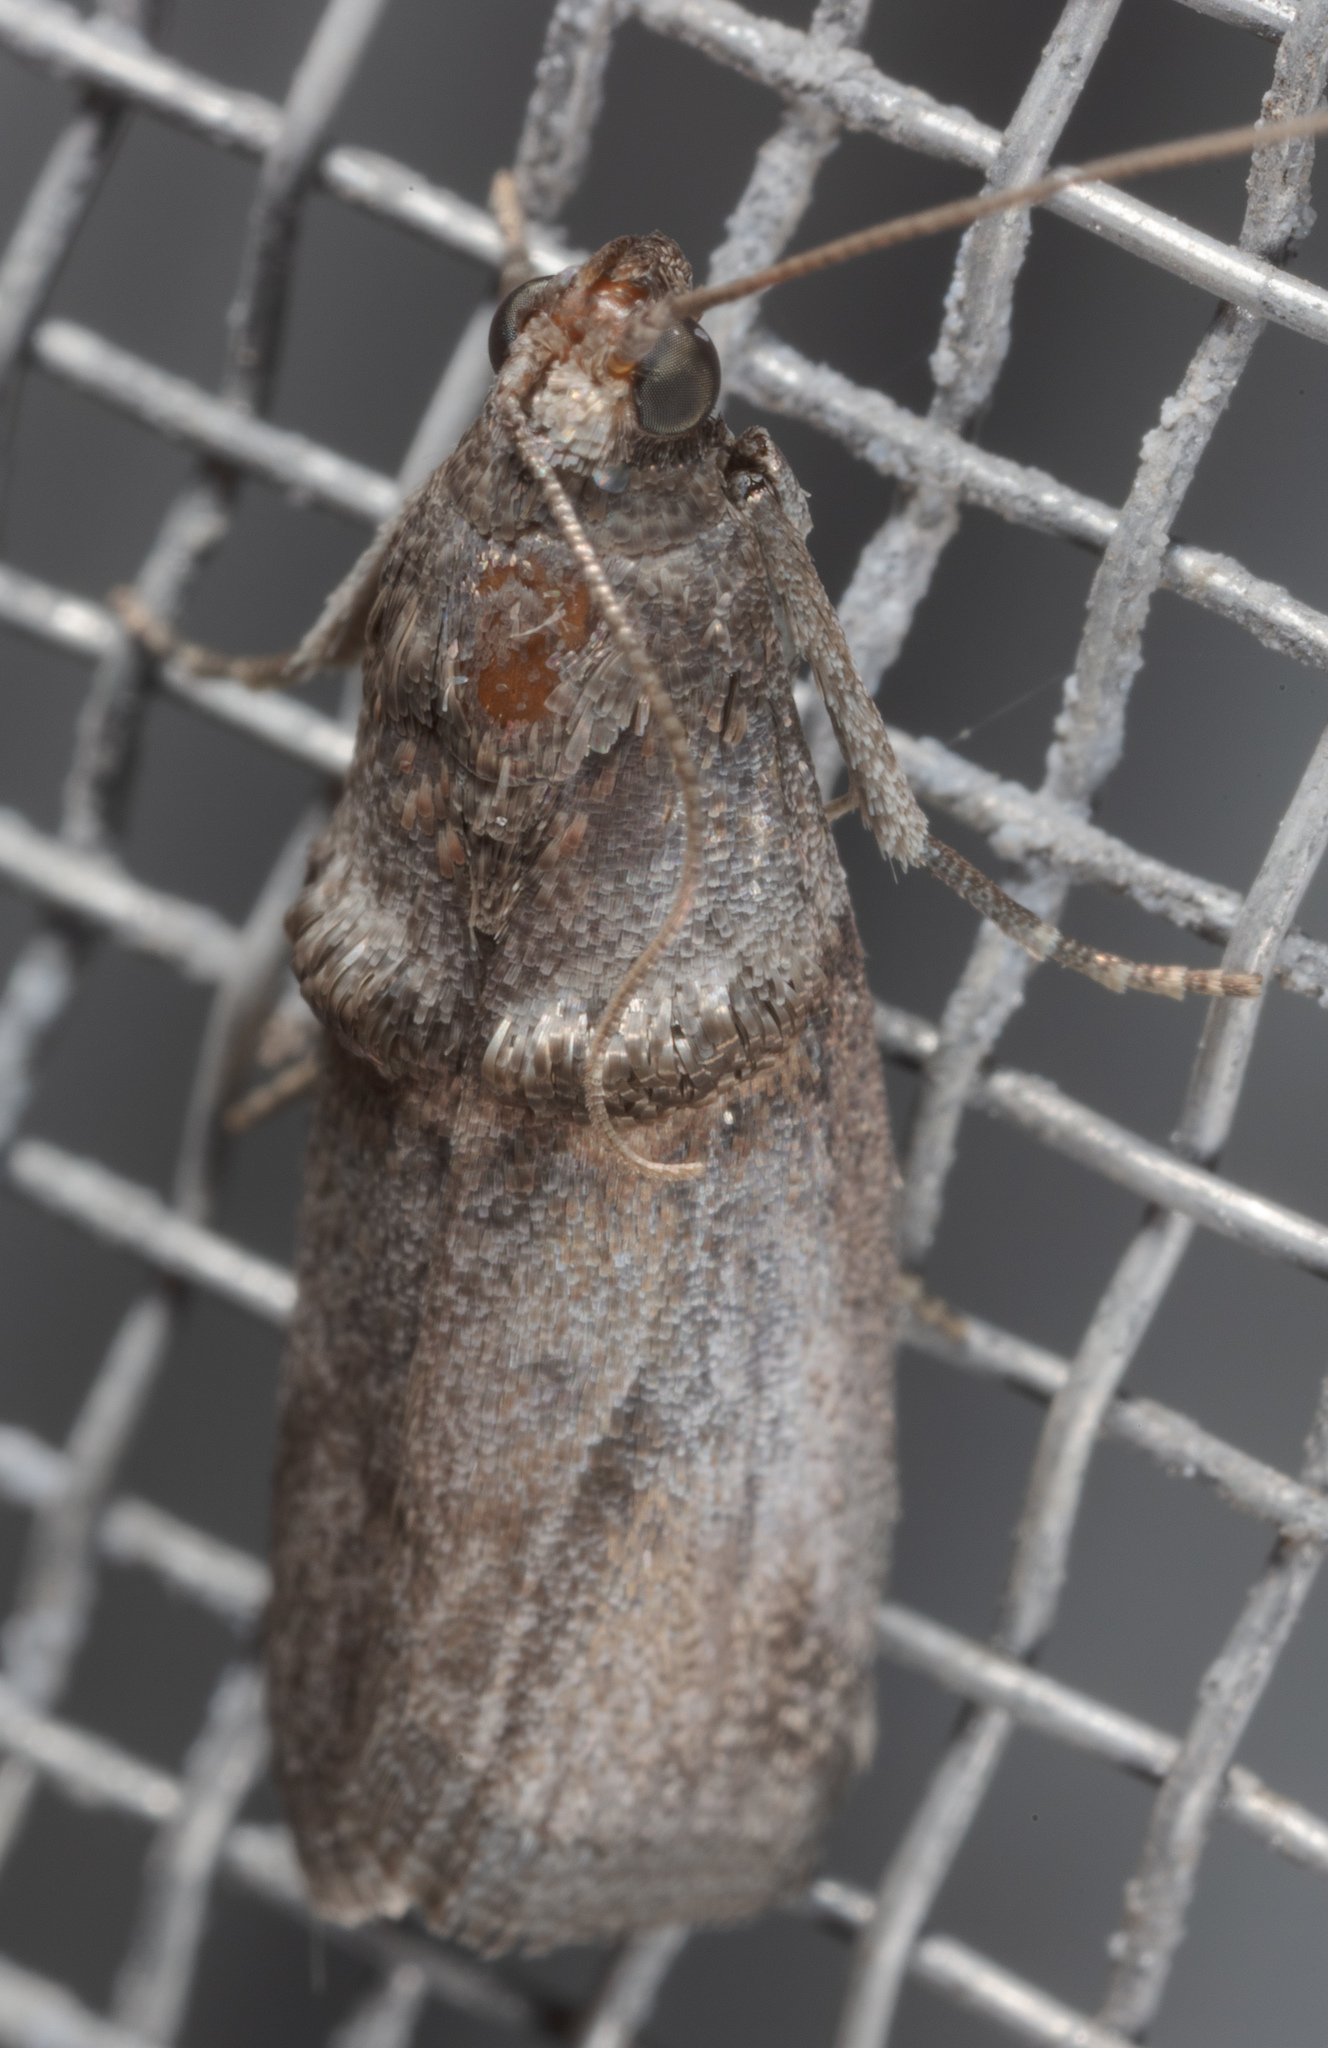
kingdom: Animalia
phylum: Arthropoda
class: Insecta
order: Lepidoptera
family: Pyralidae
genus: Acrobasis
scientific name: Acrobasis texana
